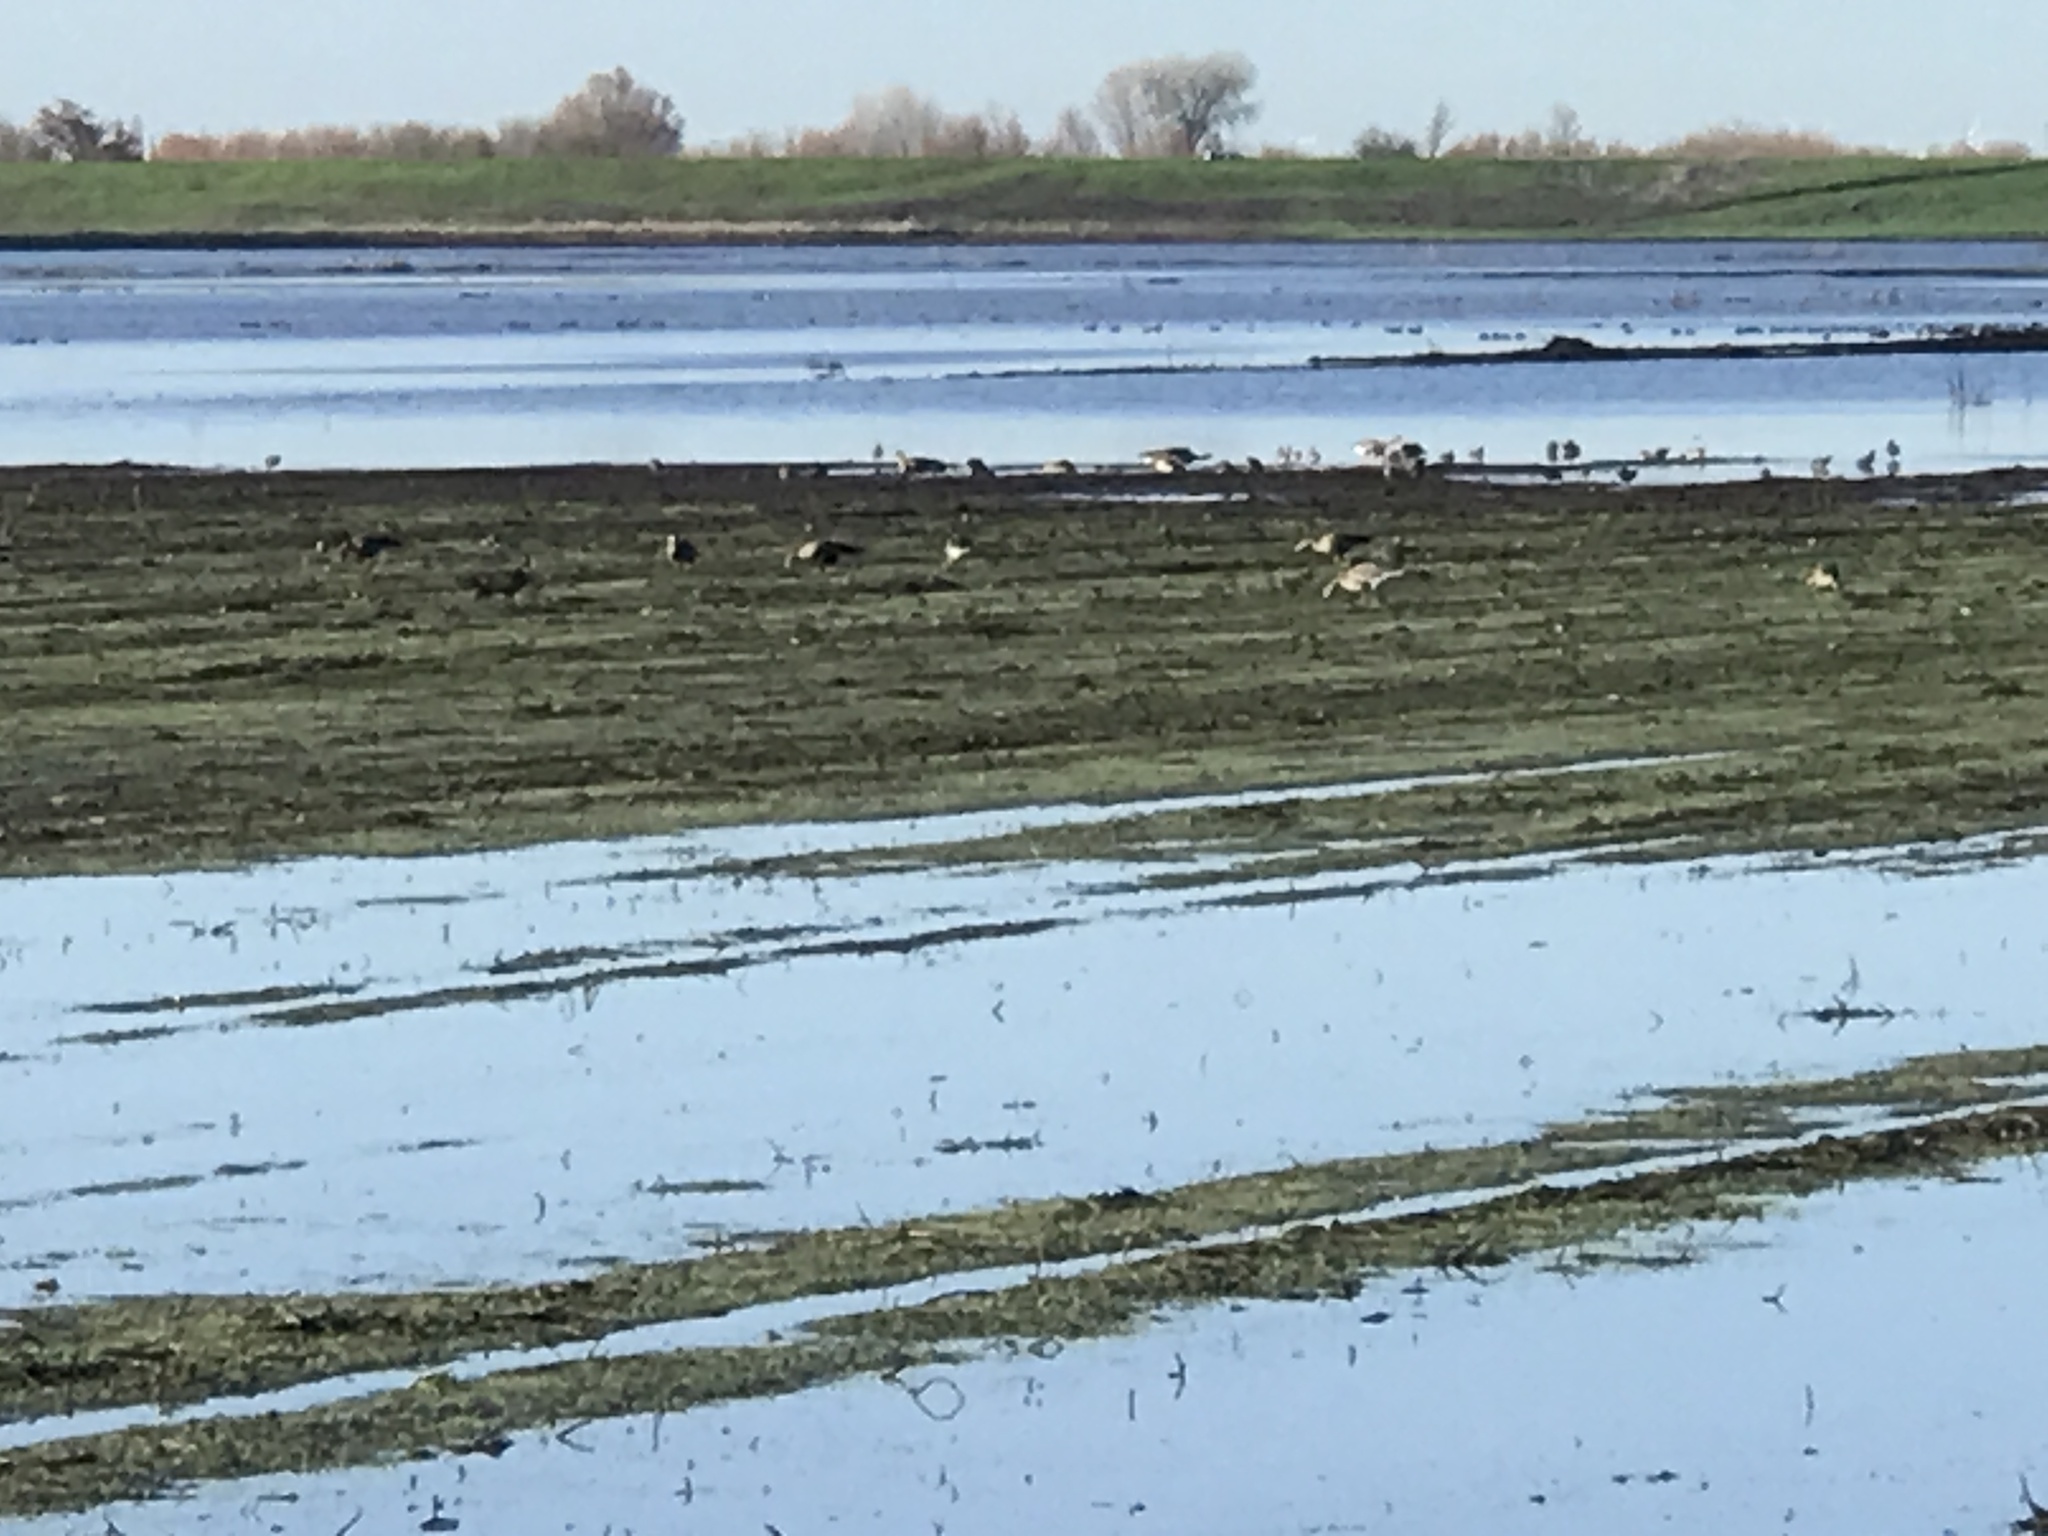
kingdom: Animalia
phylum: Chordata
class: Aves
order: Anseriformes
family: Anatidae
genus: Anser
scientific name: Anser albifrons
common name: Greater white-fronted goose
